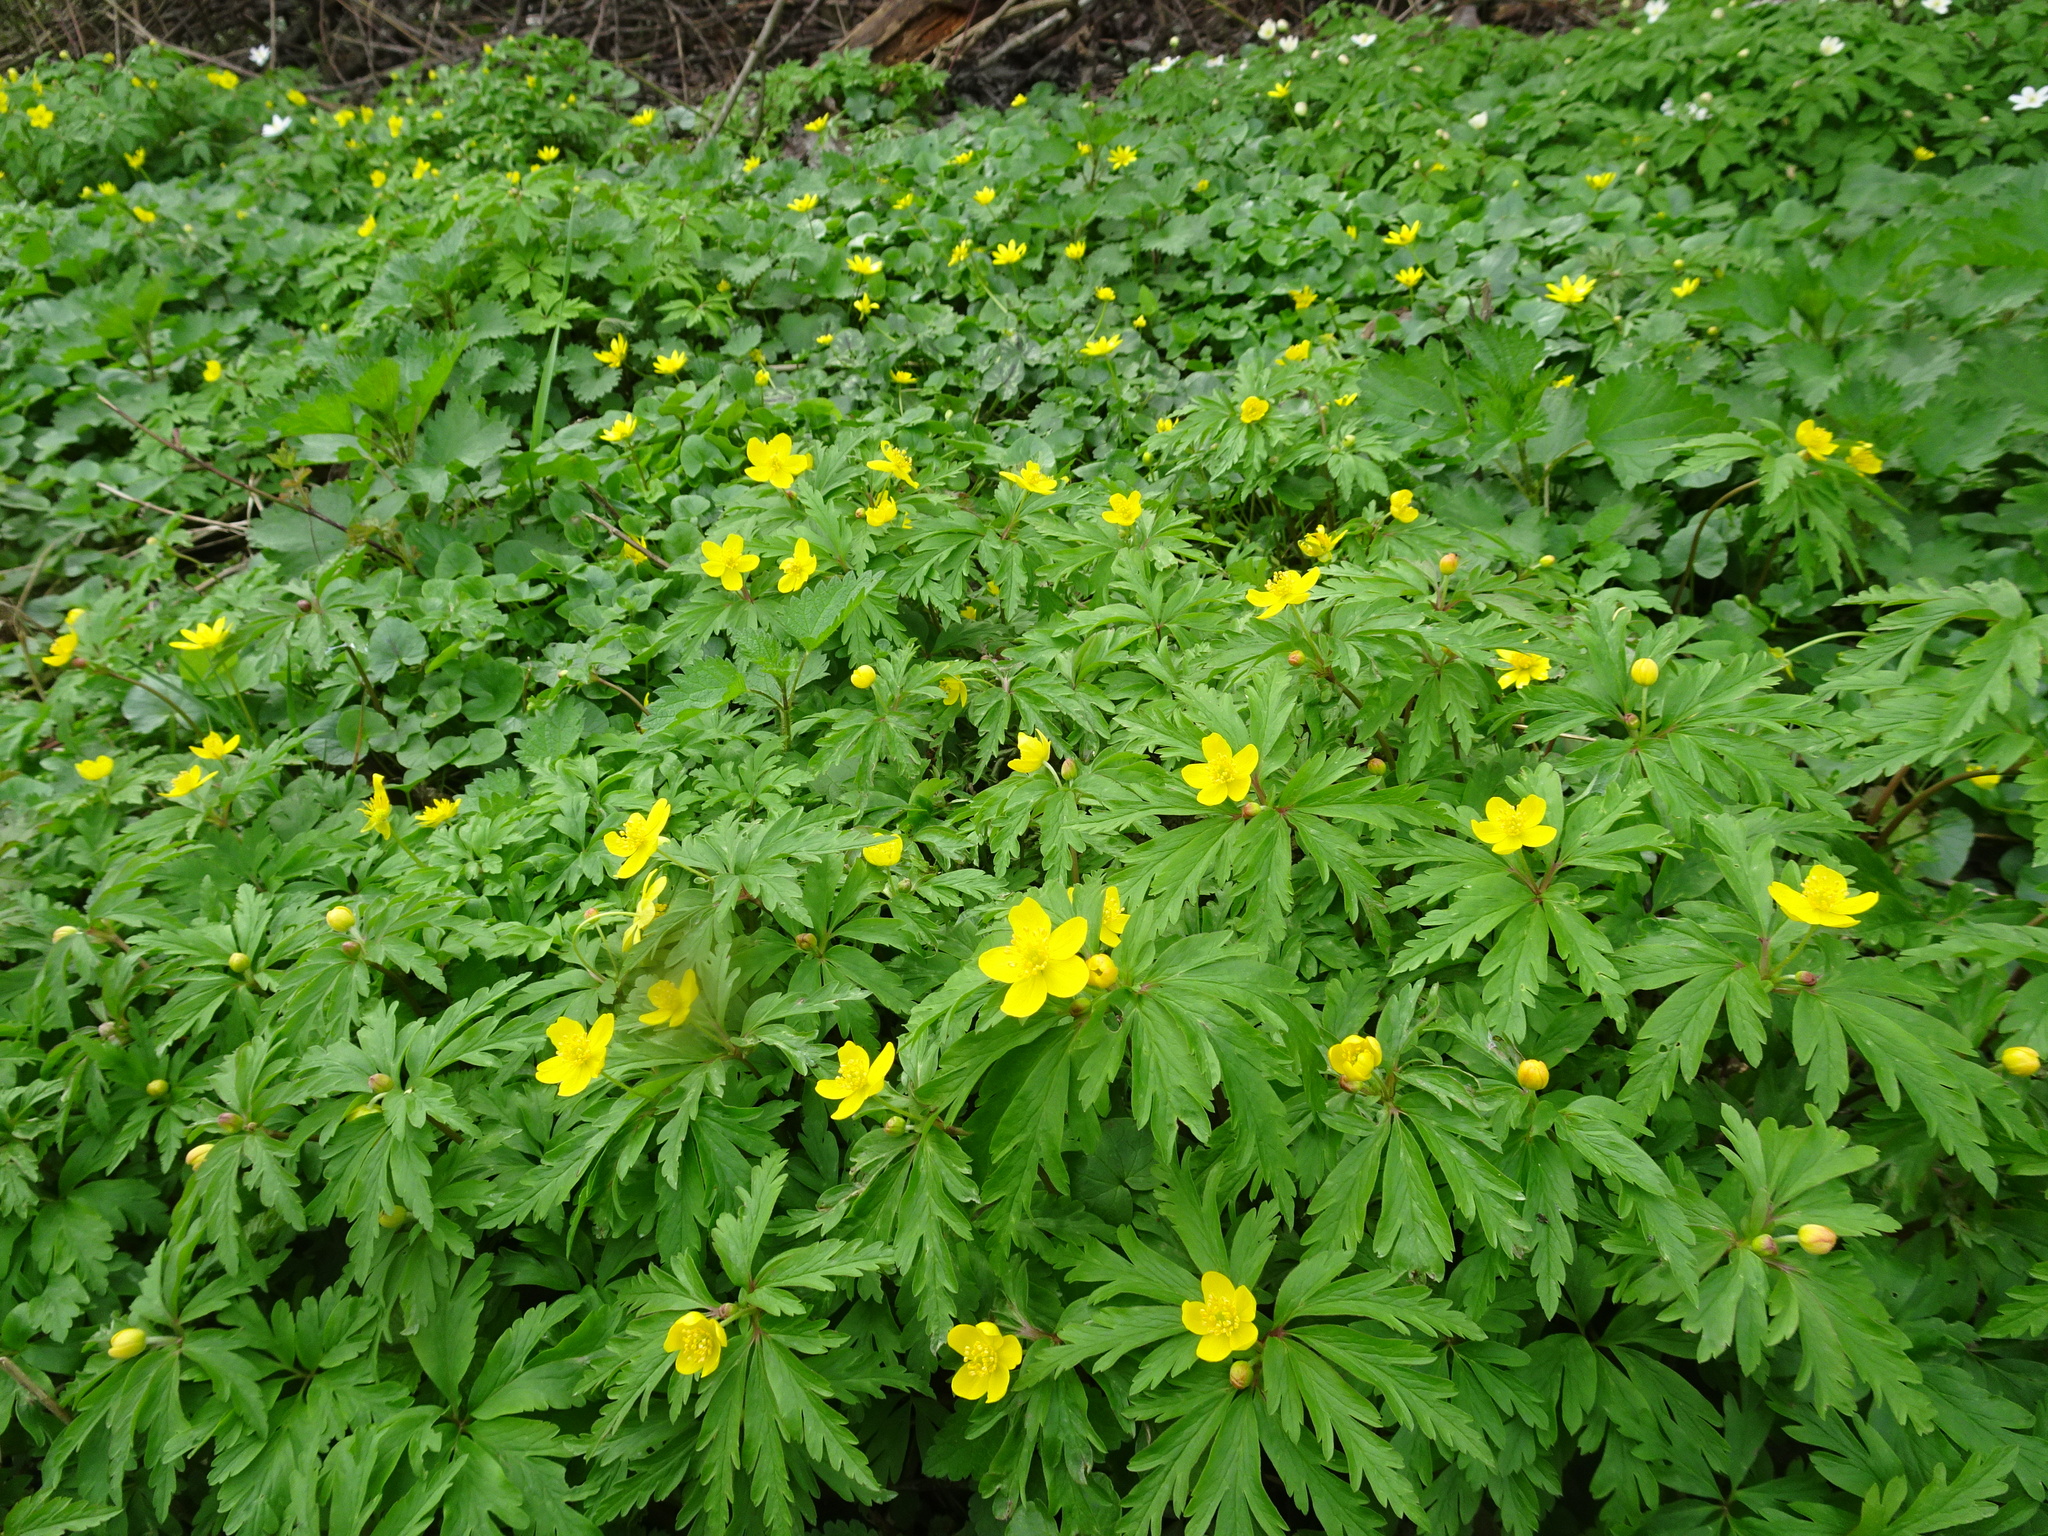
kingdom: Plantae
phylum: Tracheophyta
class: Magnoliopsida
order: Ranunculales
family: Ranunculaceae
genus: Anemone
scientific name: Anemone ranunculoides
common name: Yellow anemone
